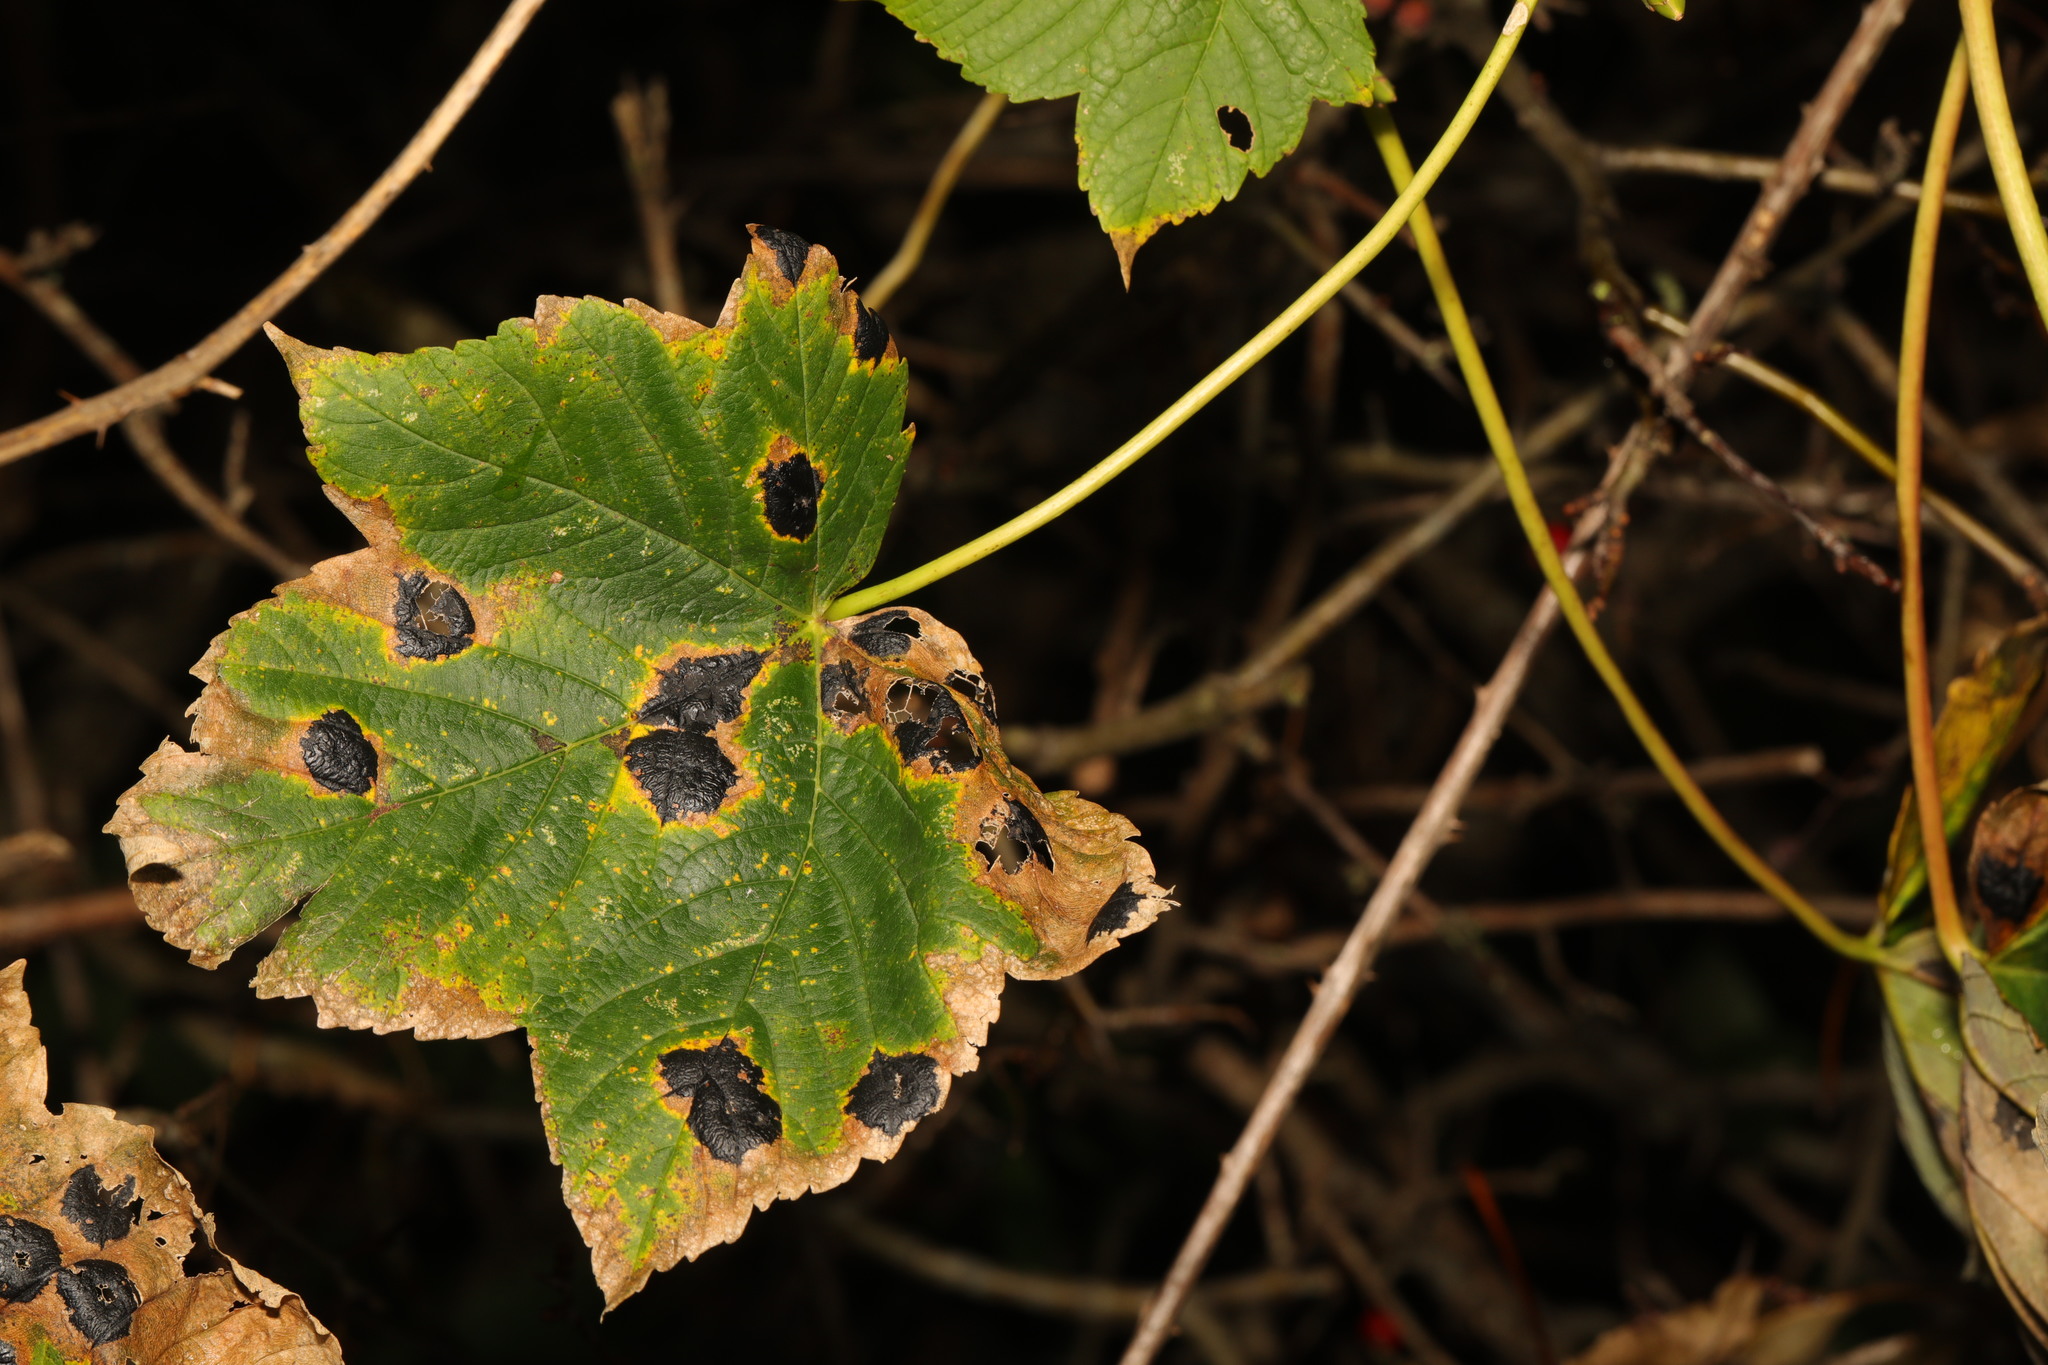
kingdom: Plantae
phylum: Tracheophyta
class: Magnoliopsida
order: Sapindales
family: Sapindaceae
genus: Acer
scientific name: Acer pseudoplatanus
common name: Sycamore
